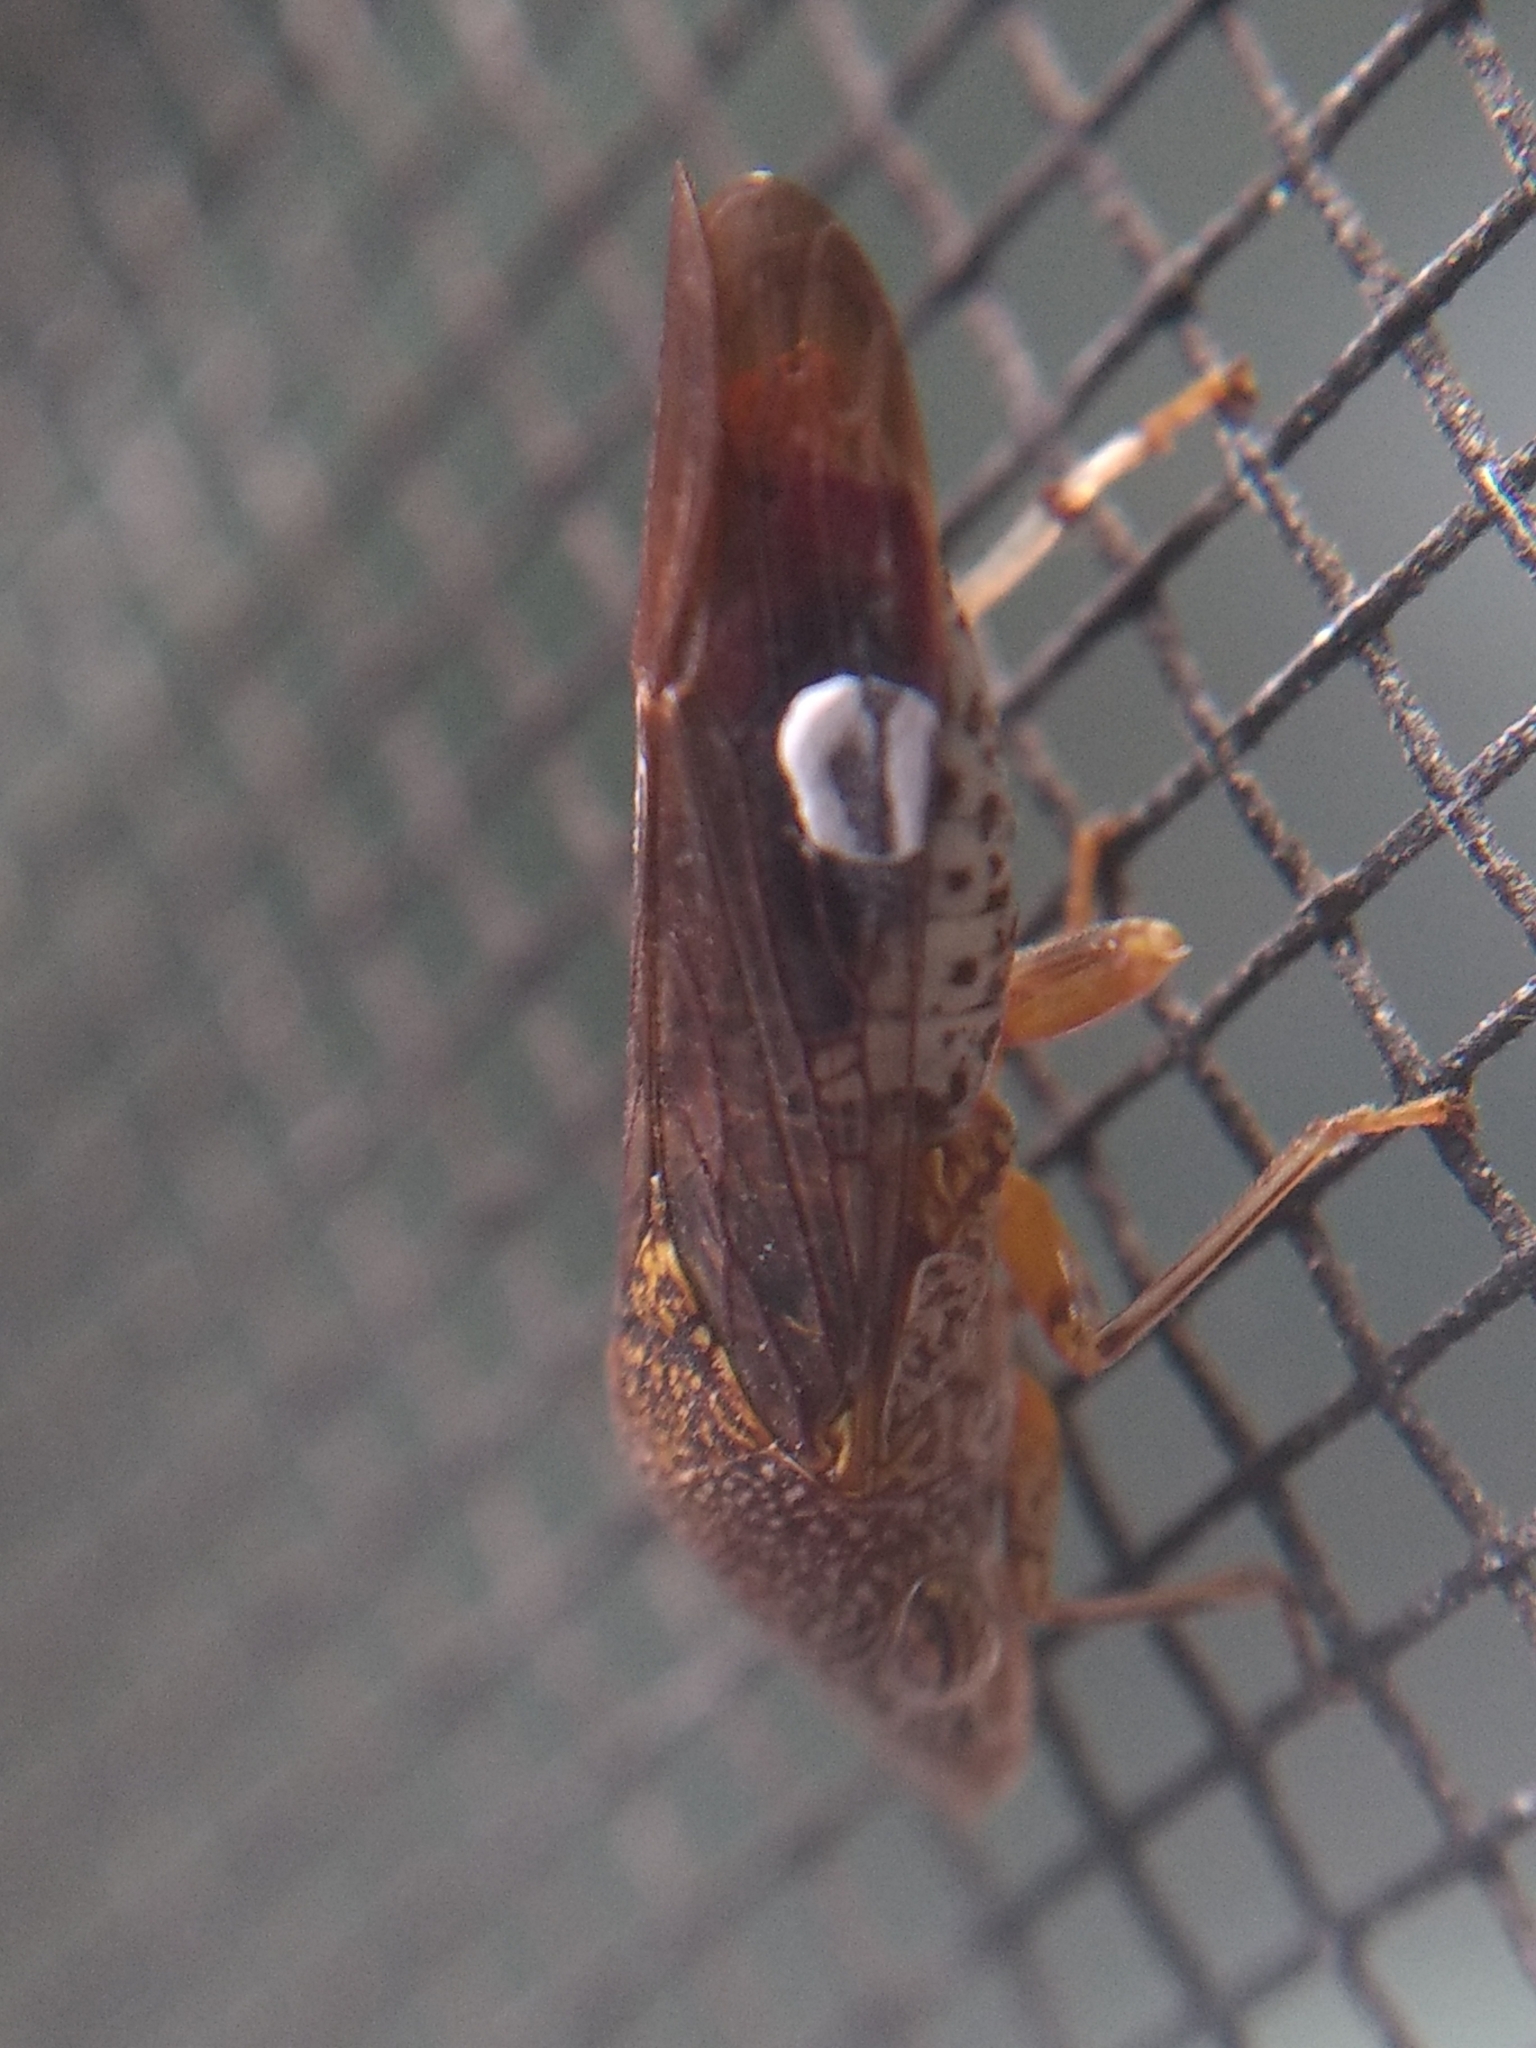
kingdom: Animalia
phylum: Arthropoda
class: Insecta
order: Hemiptera
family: Cicadellidae
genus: Homalodisca
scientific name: Homalodisca liturata
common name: Lacertate sharpshooter
